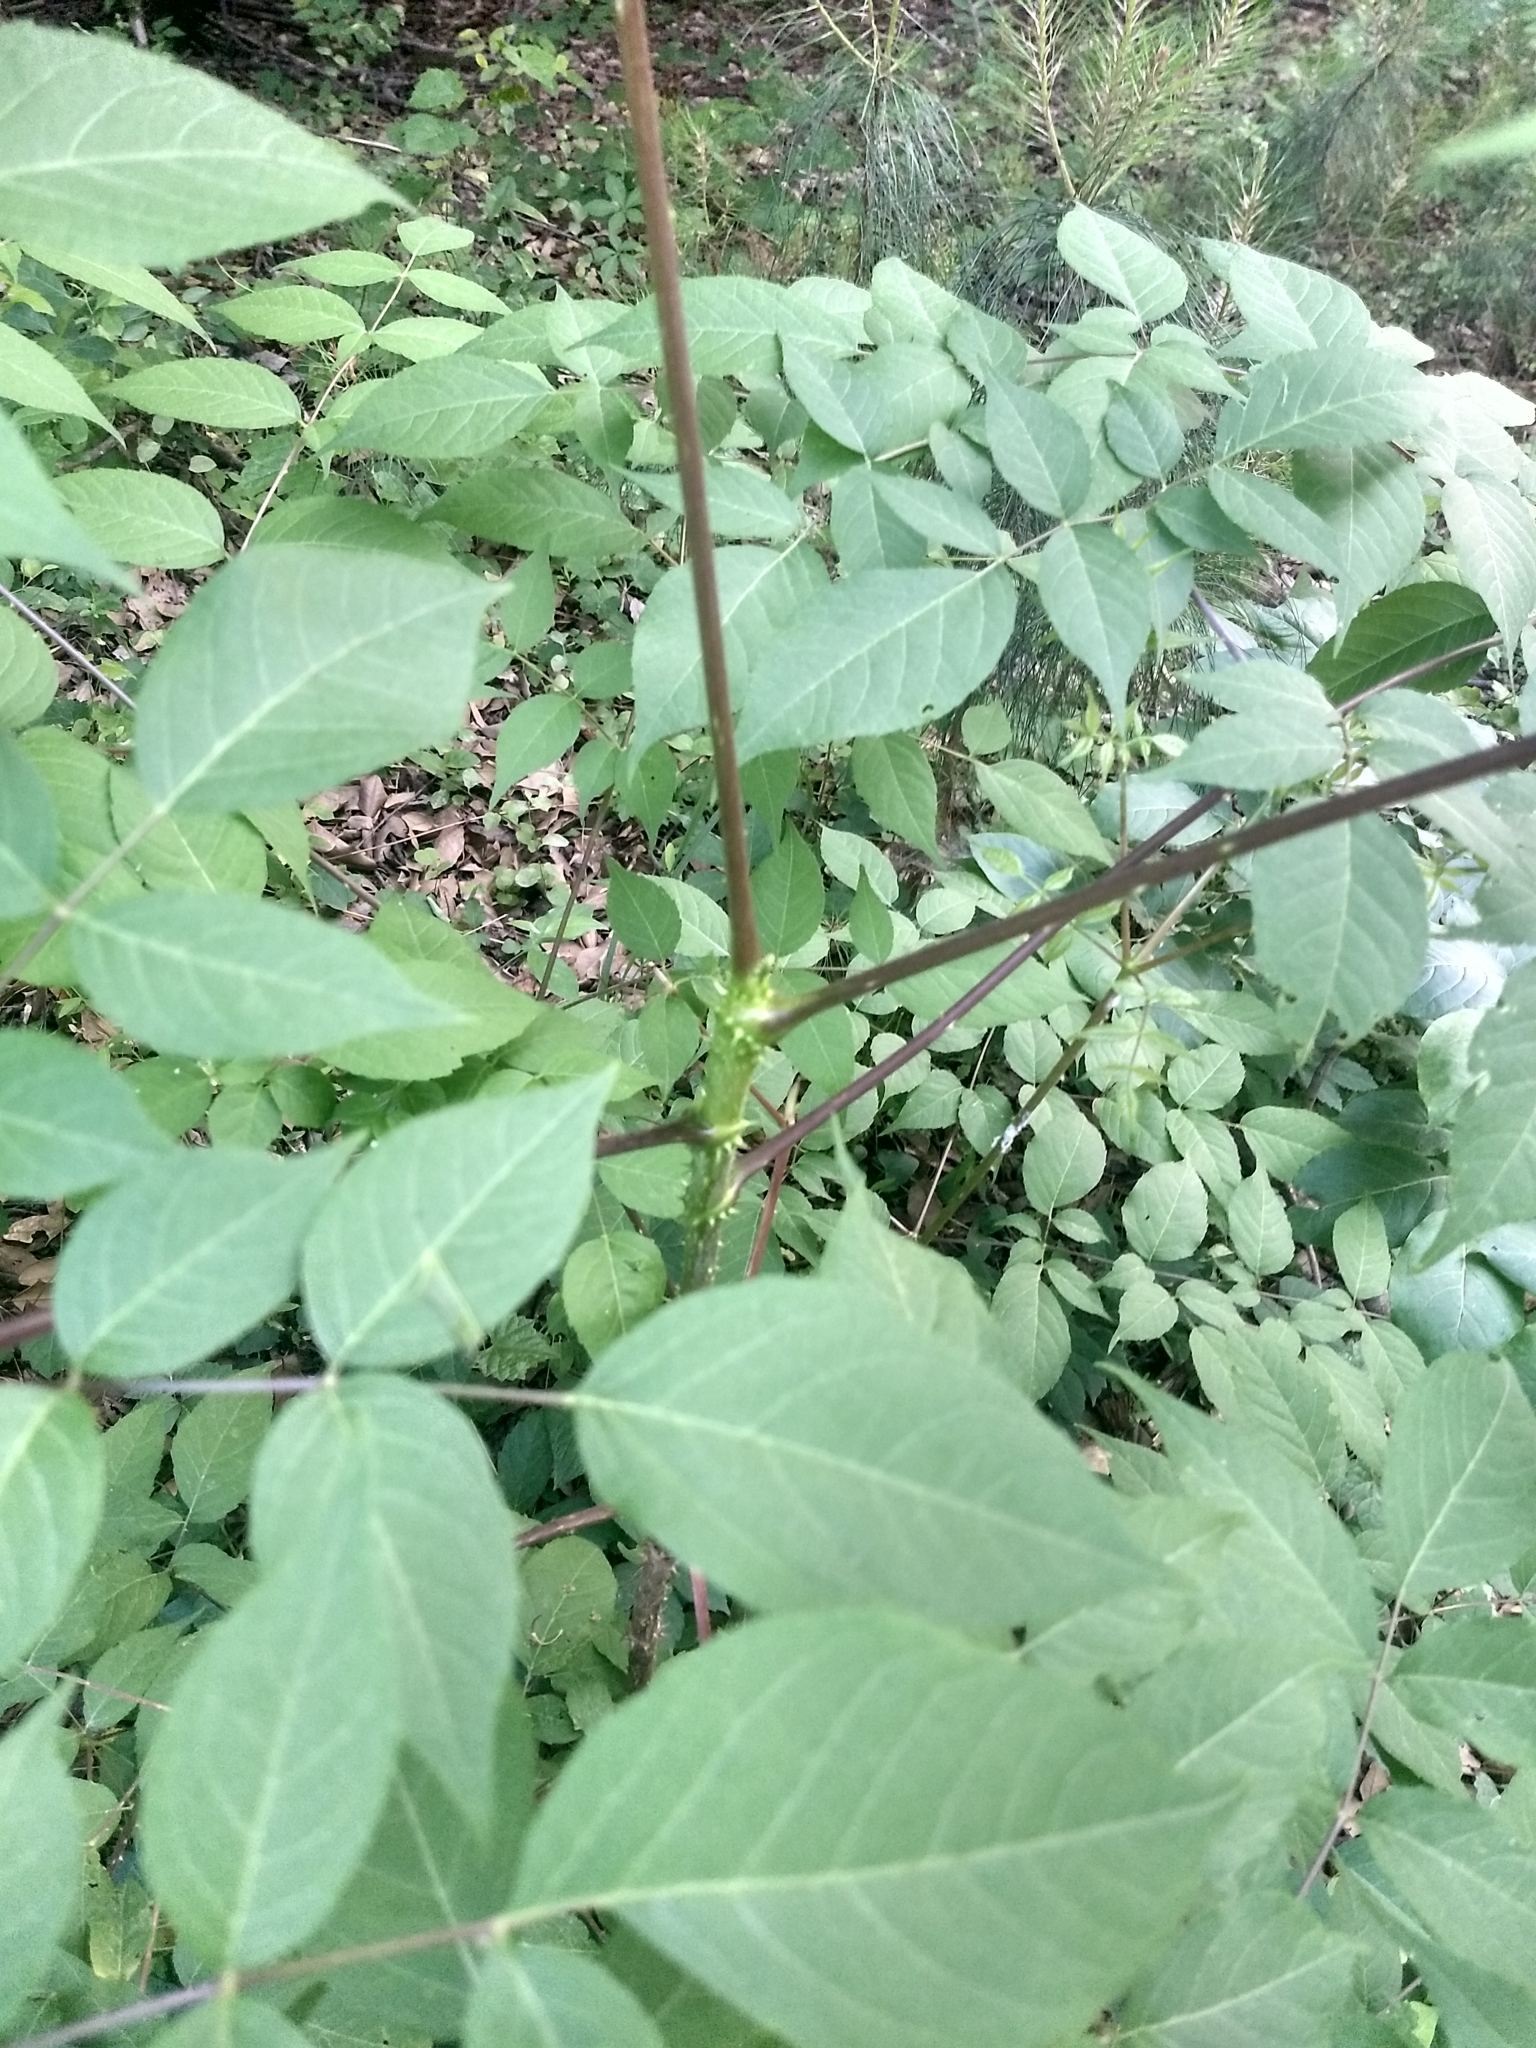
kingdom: Plantae
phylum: Tracheophyta
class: Magnoliopsida
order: Apiales
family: Araliaceae
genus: Aralia
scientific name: Aralia spinosa
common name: Hercules'-club
